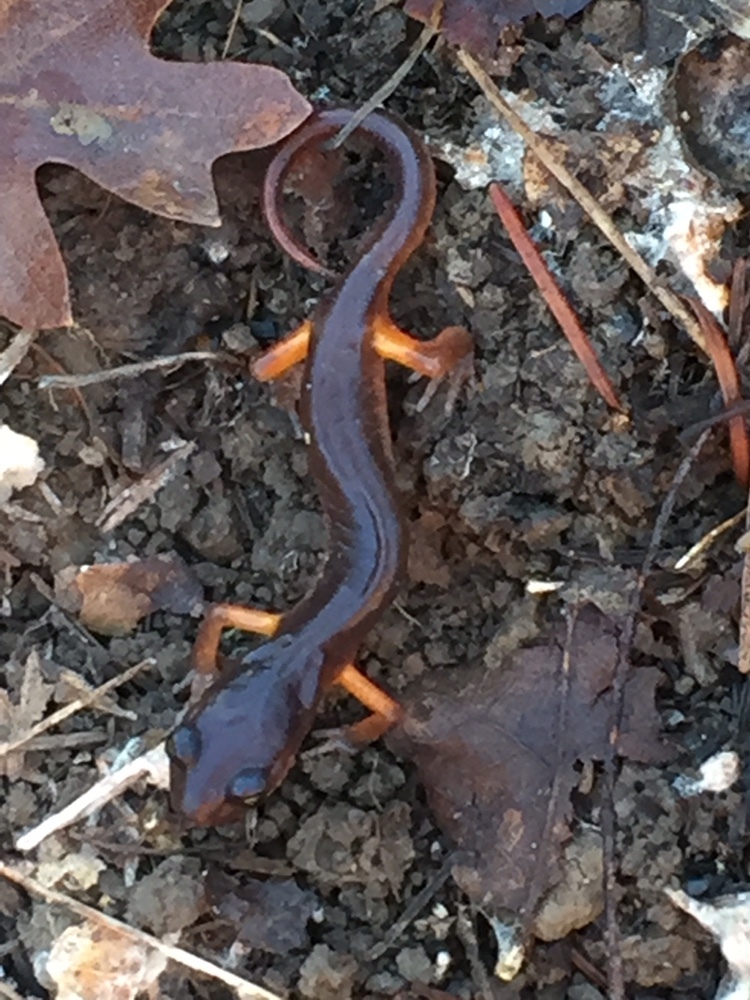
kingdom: Animalia
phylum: Chordata
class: Amphibia
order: Caudata
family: Plethodontidae
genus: Ensatina
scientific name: Ensatina eschscholtzii
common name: Ensatina
